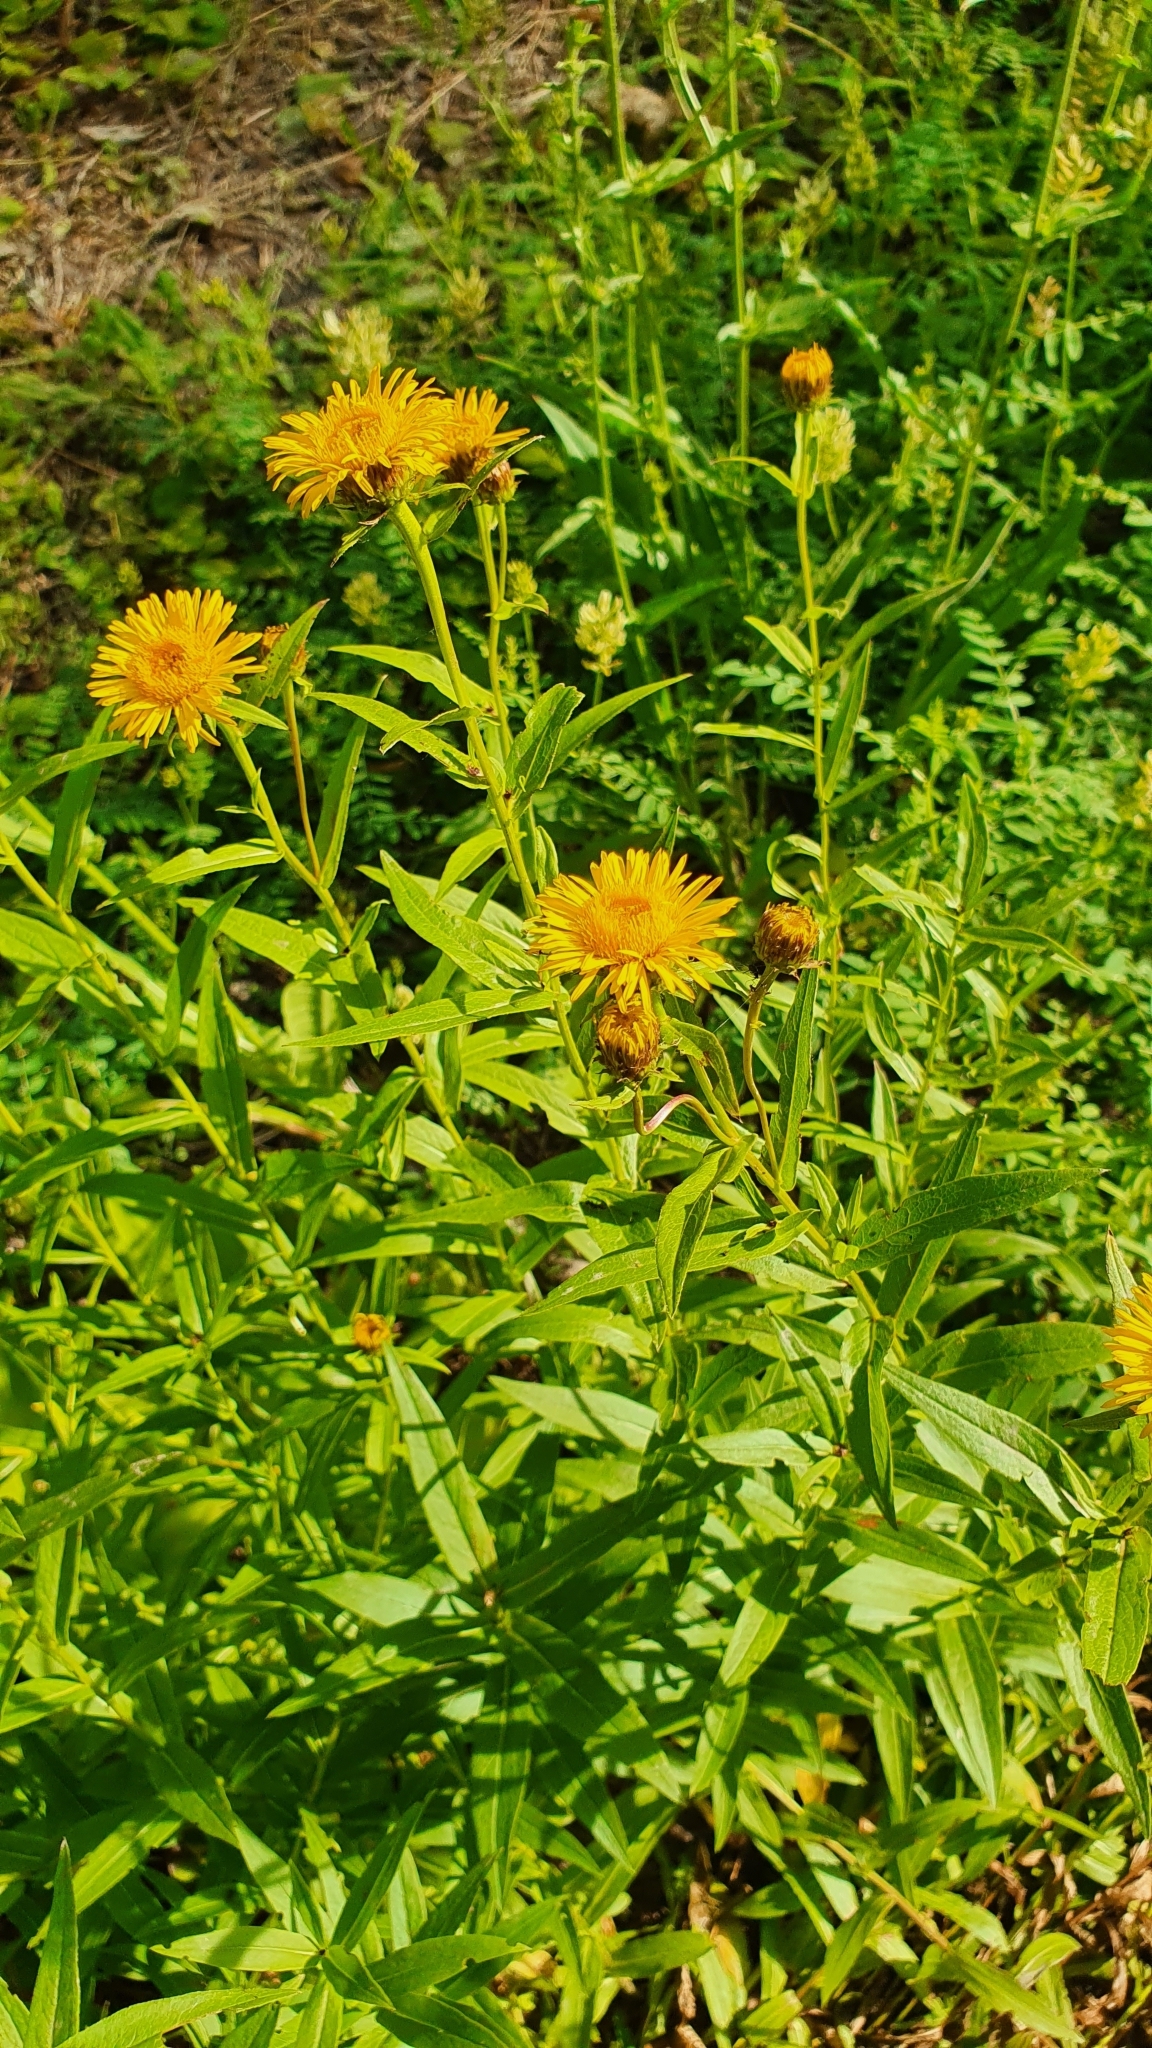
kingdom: Plantae
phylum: Tracheophyta
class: Magnoliopsida
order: Asterales
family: Asteraceae
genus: Pentanema
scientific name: Pentanema salicinum
